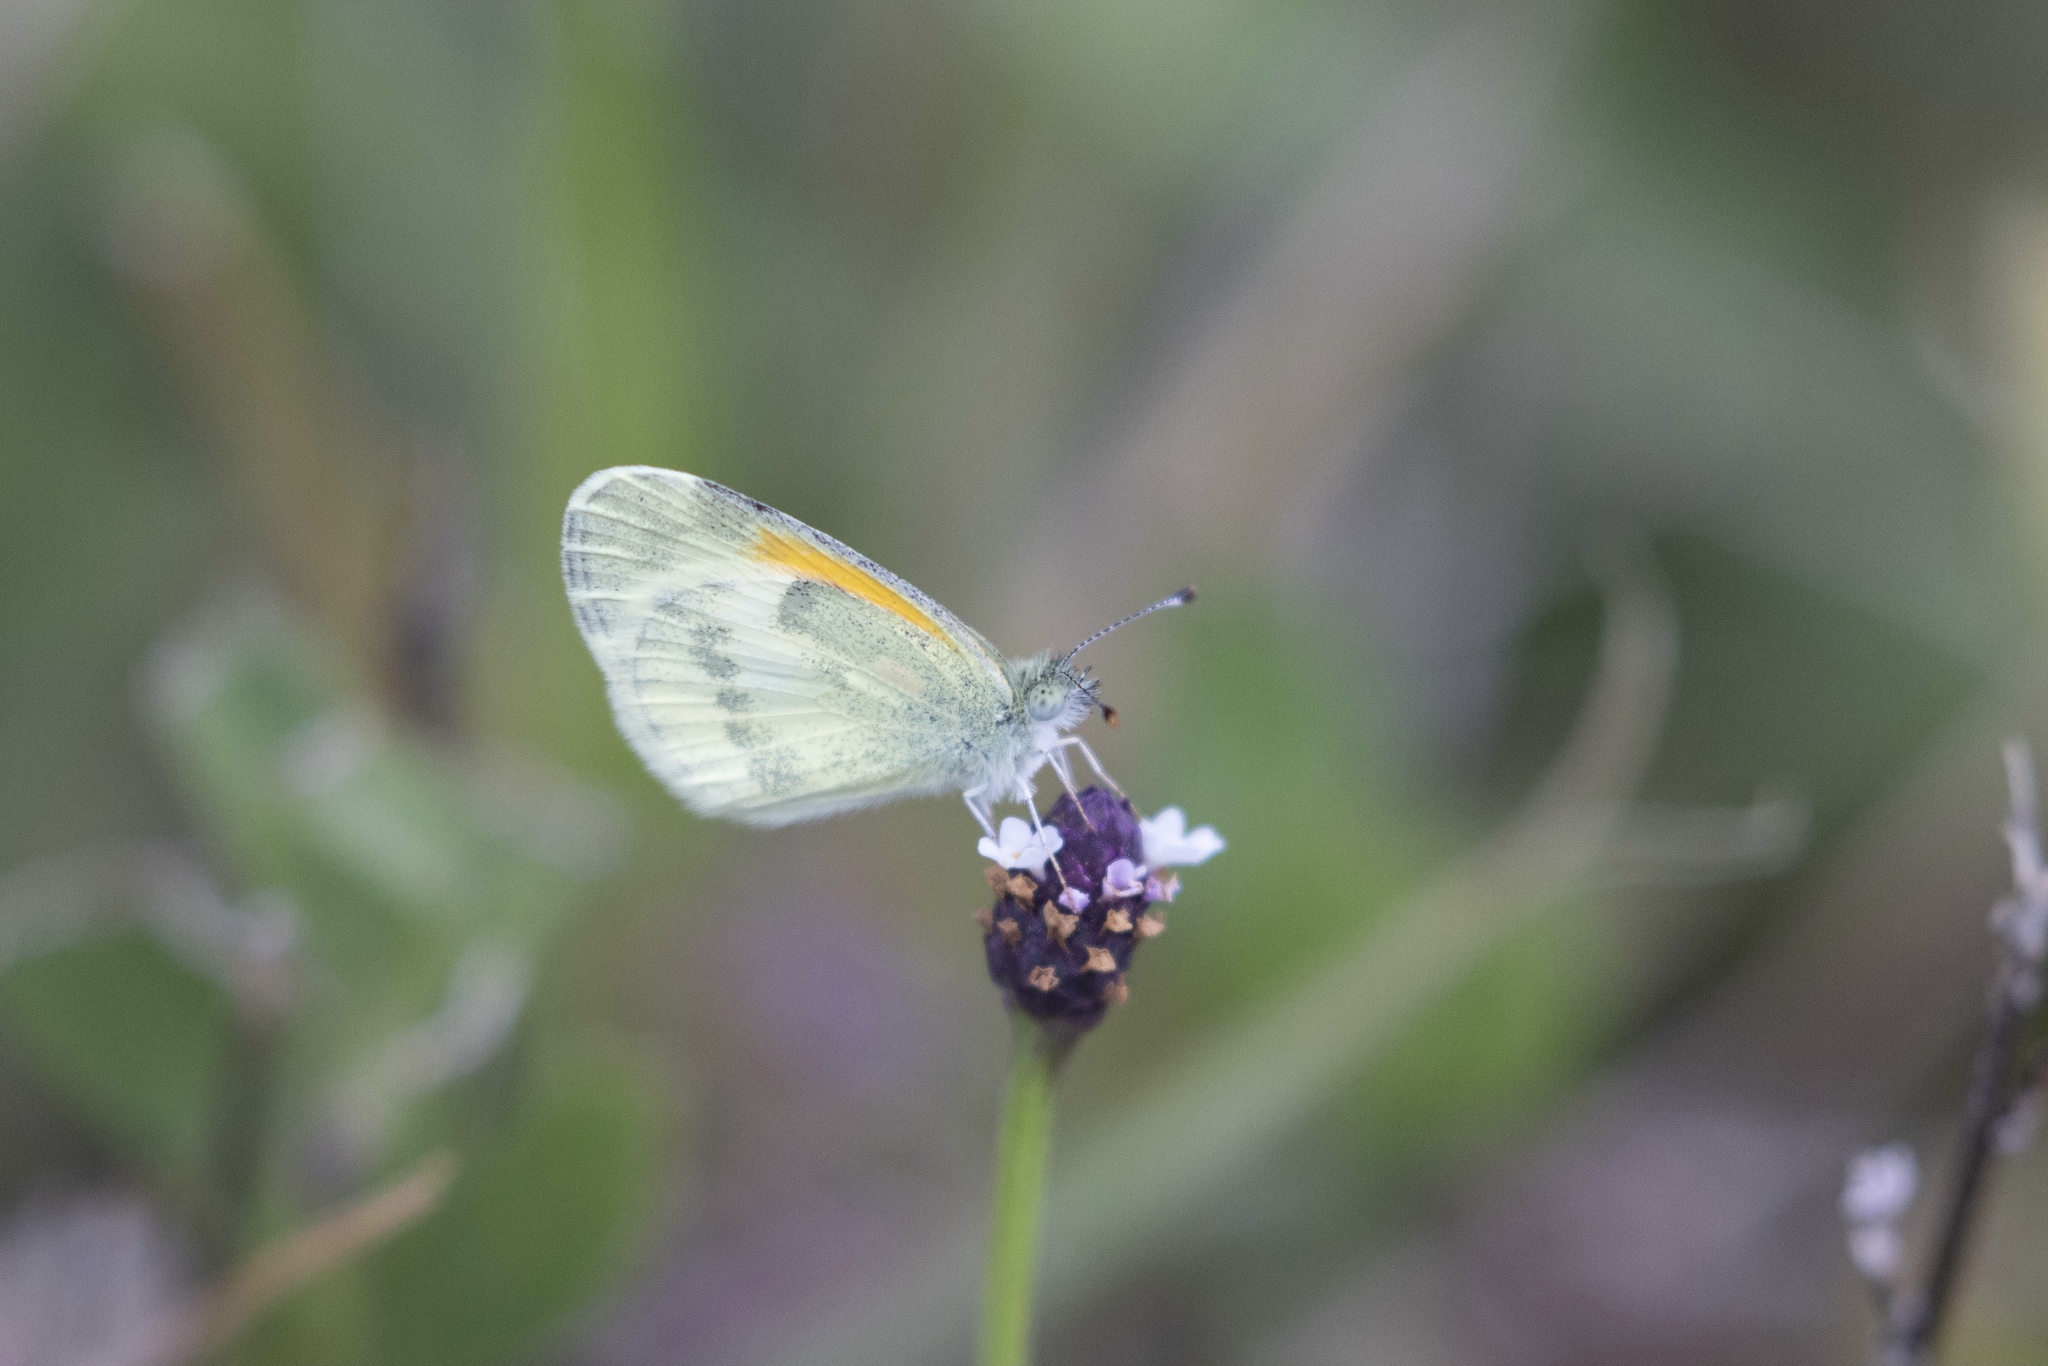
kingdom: Animalia
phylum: Arthropoda
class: Insecta
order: Lepidoptera
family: Pieridae
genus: Nathalis
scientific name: Nathalis iole
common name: Dainty sulphur
